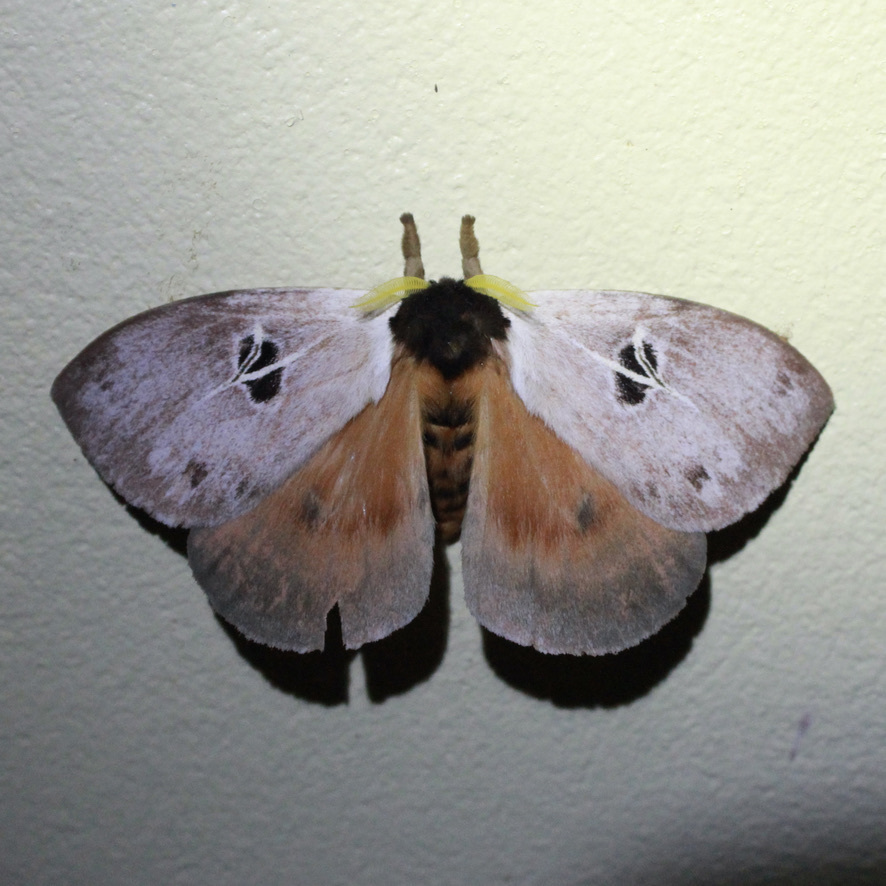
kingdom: Animalia
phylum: Arthropoda
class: Insecta
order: Lepidoptera
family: Saturniidae
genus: Dirphia
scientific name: Dirphia tarquinia
